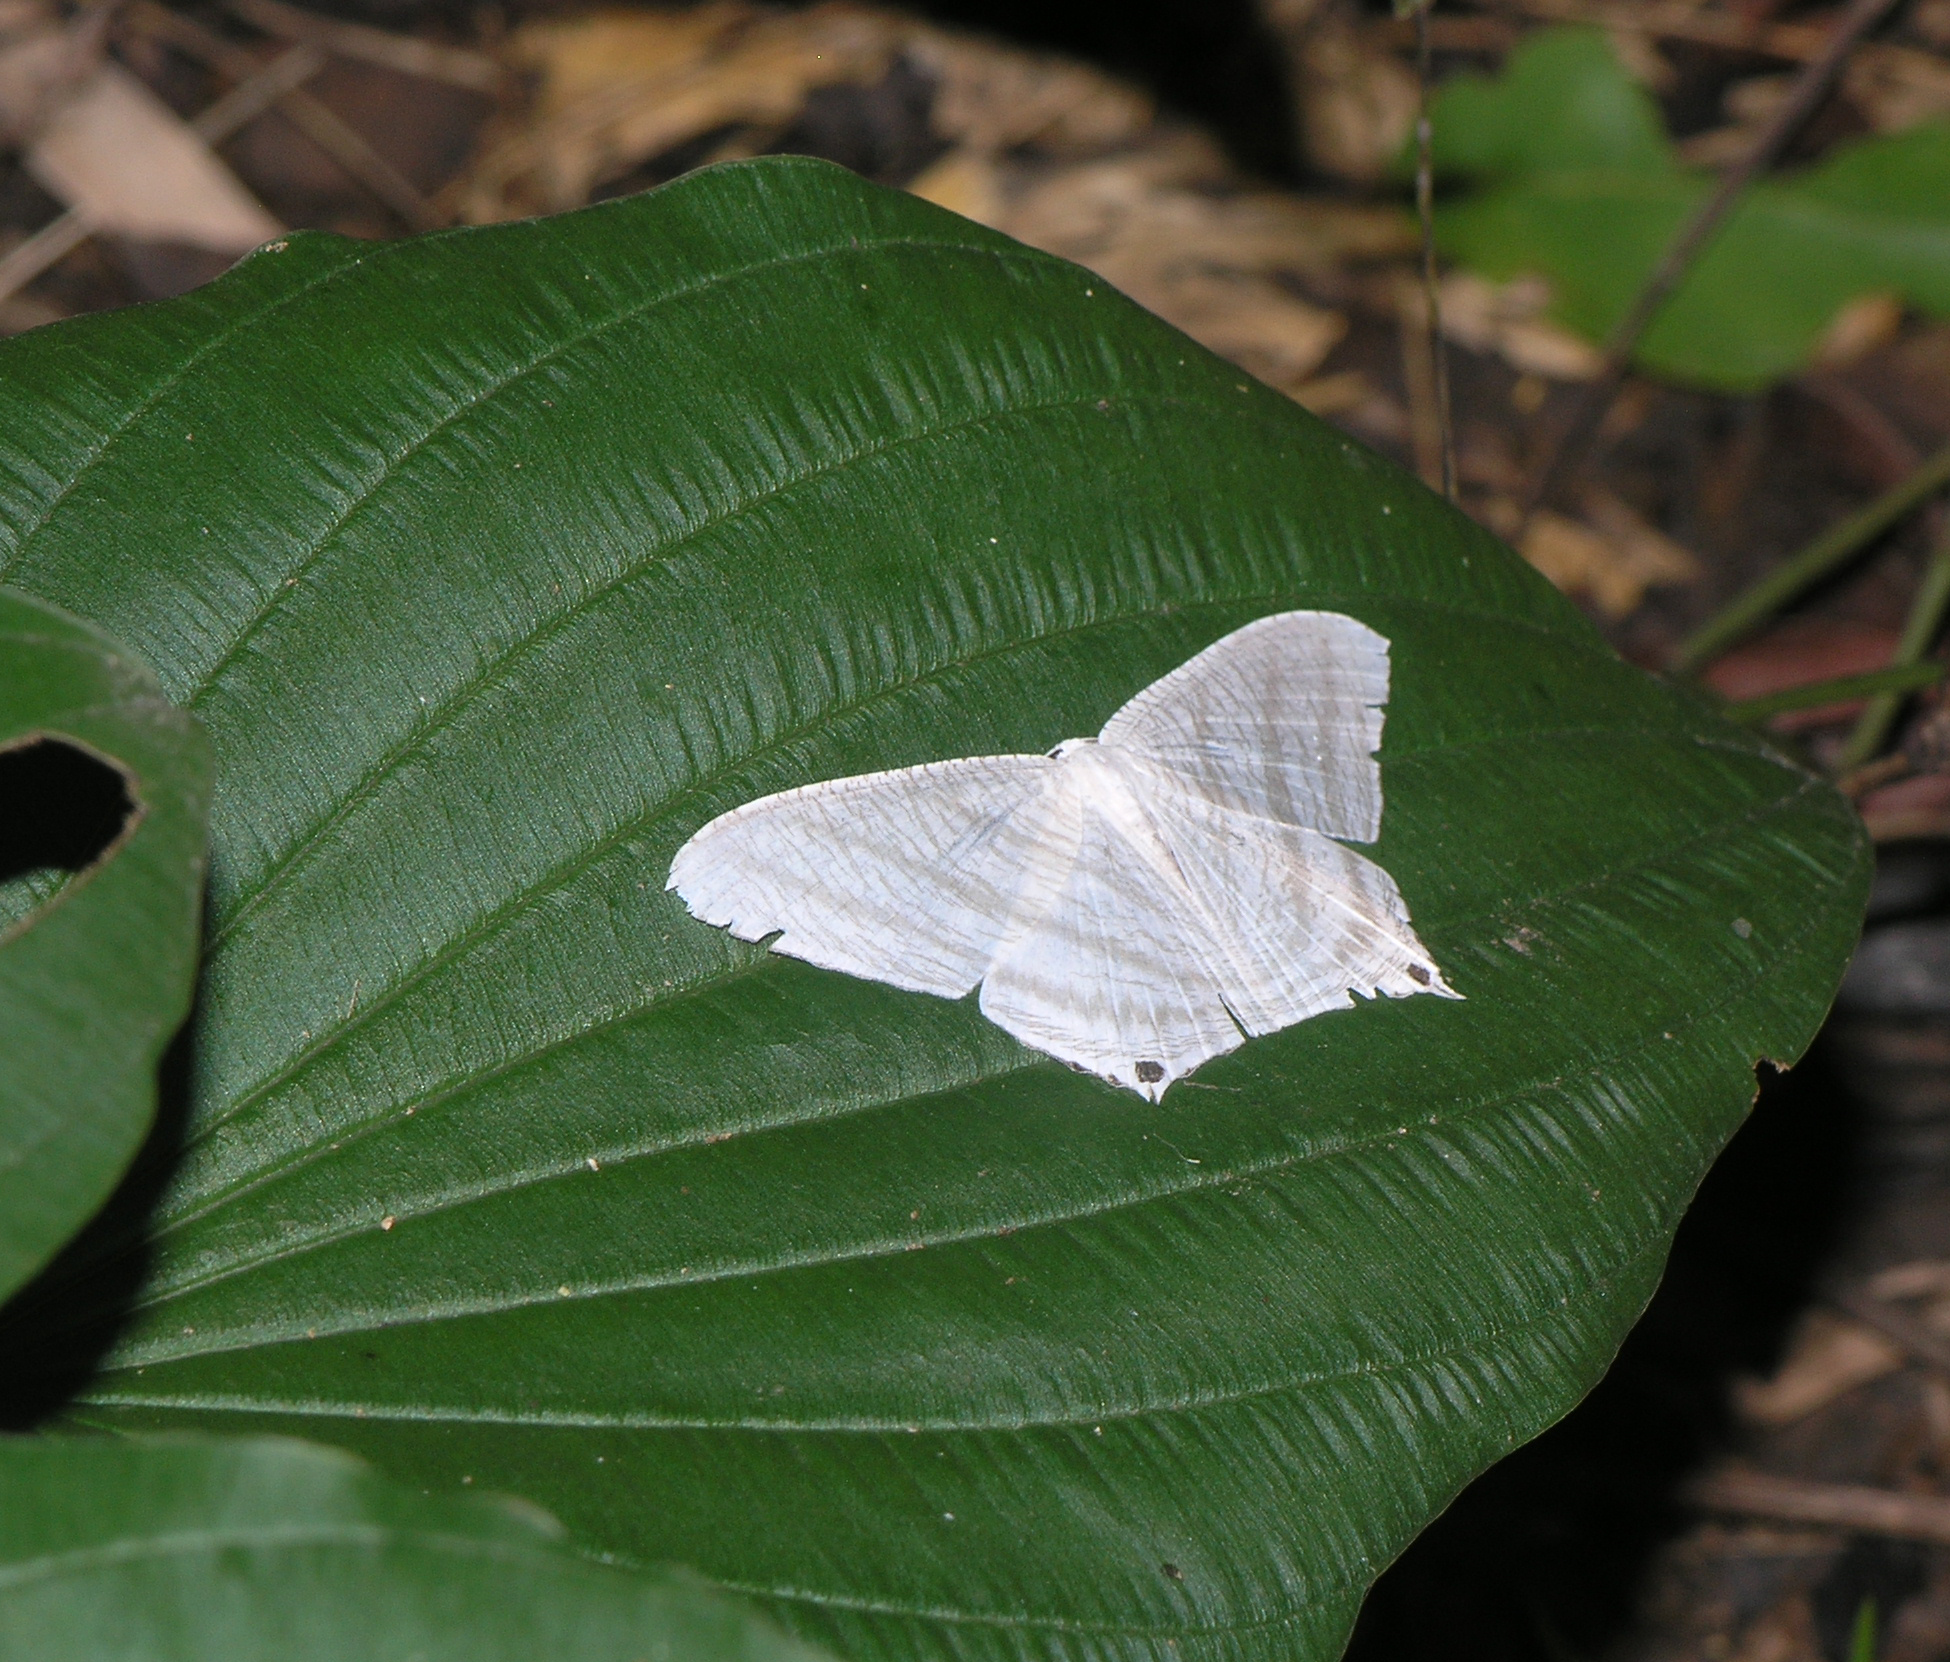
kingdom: Animalia
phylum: Arthropoda
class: Insecta
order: Lepidoptera
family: Uraniidae
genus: Micronia
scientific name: Micronia aculeata
